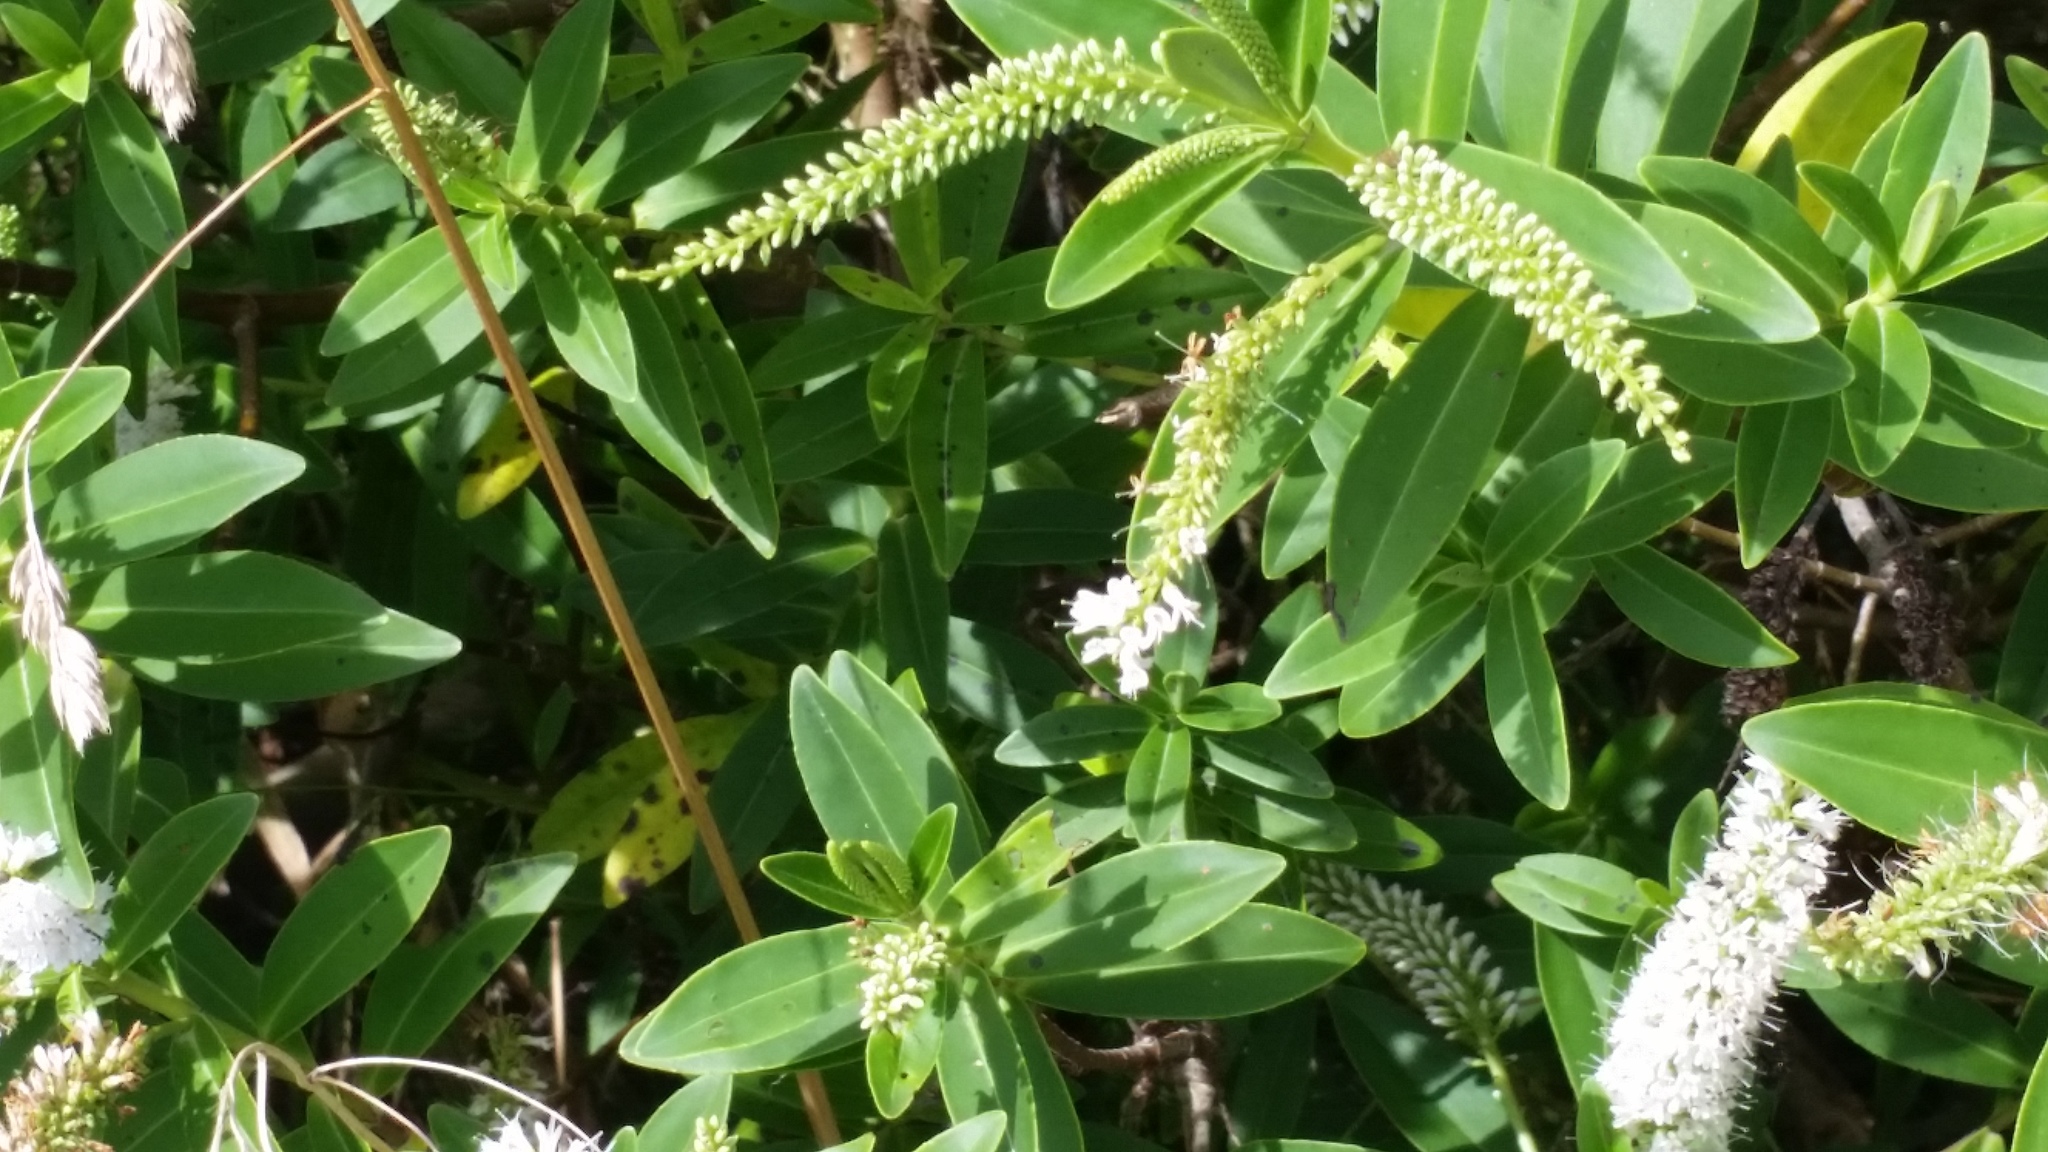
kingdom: Plantae
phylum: Tracheophyta
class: Magnoliopsida
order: Lamiales
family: Plantaginaceae
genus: Veronica
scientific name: Veronica stricta
